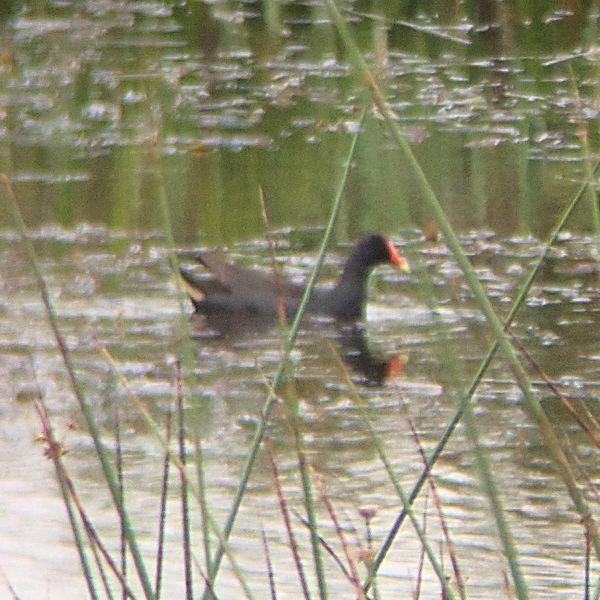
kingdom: Animalia
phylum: Chordata
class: Aves
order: Gruiformes
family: Rallidae
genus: Gallinula
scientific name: Gallinula tenebrosa
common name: Dusky moorhen
